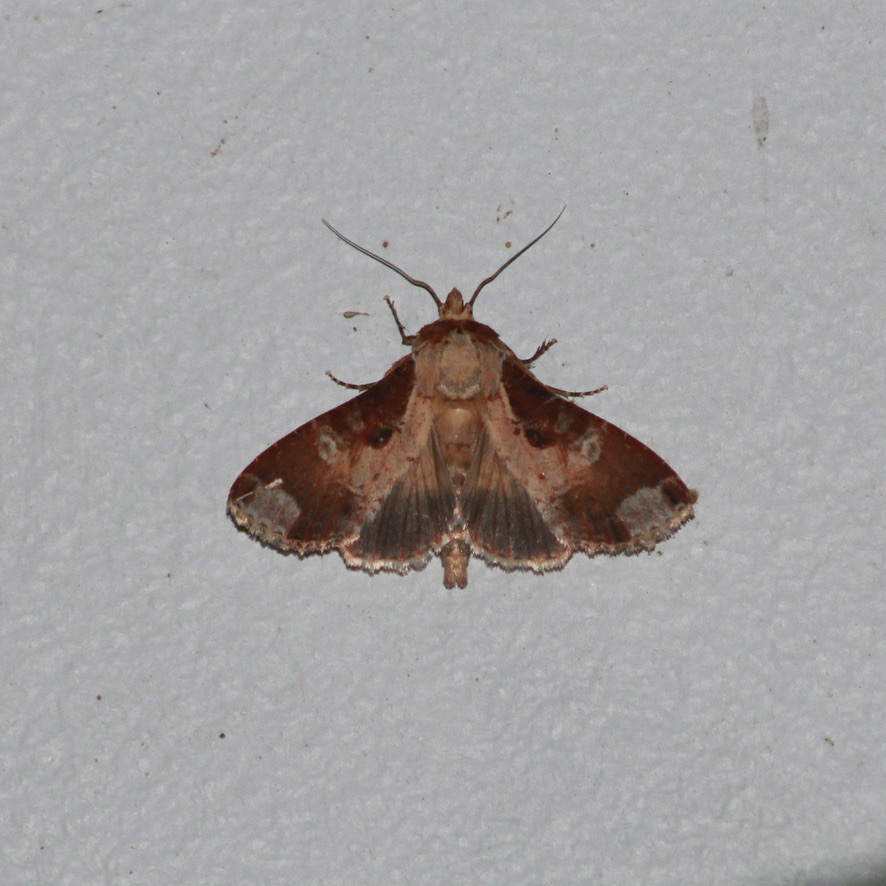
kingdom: Animalia
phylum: Arthropoda
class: Insecta
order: Lepidoptera
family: Noctuidae
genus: Condica
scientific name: Condica imitata
